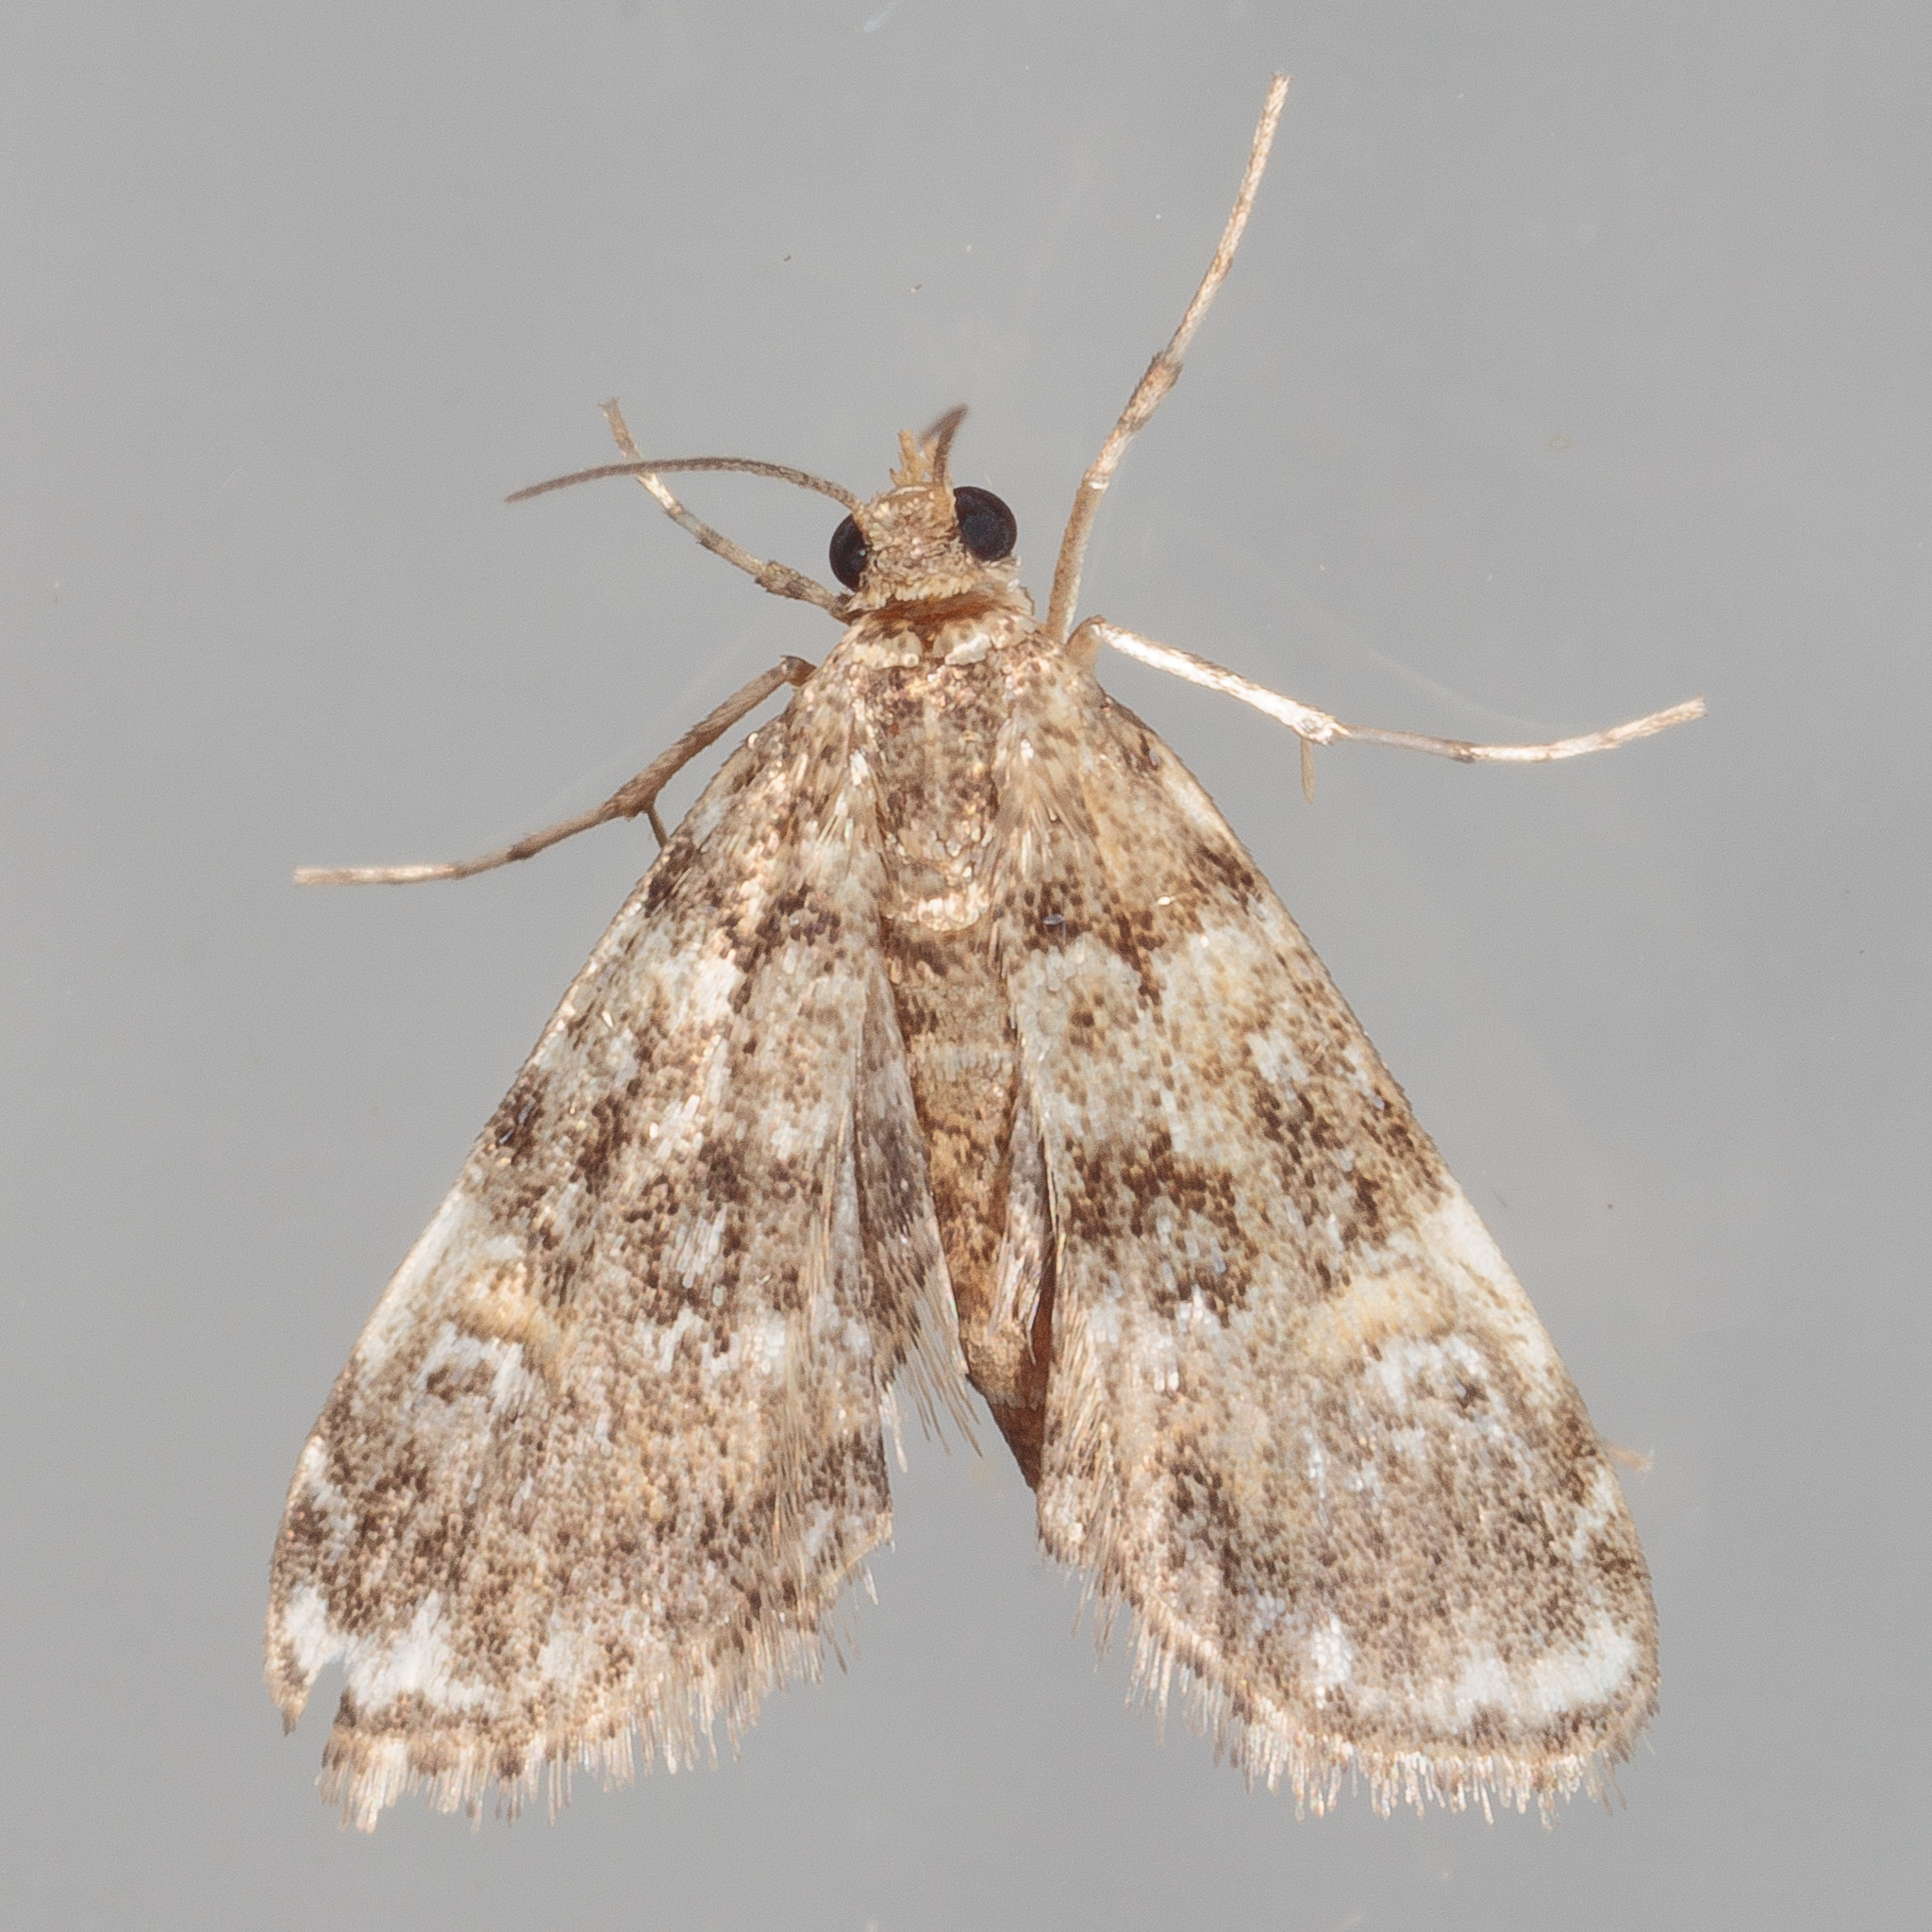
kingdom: Animalia
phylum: Arthropoda
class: Insecta
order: Lepidoptera
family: Crambidae
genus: Elophila
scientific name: Elophila obliteralis
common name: Waterlily leafcutter moth
